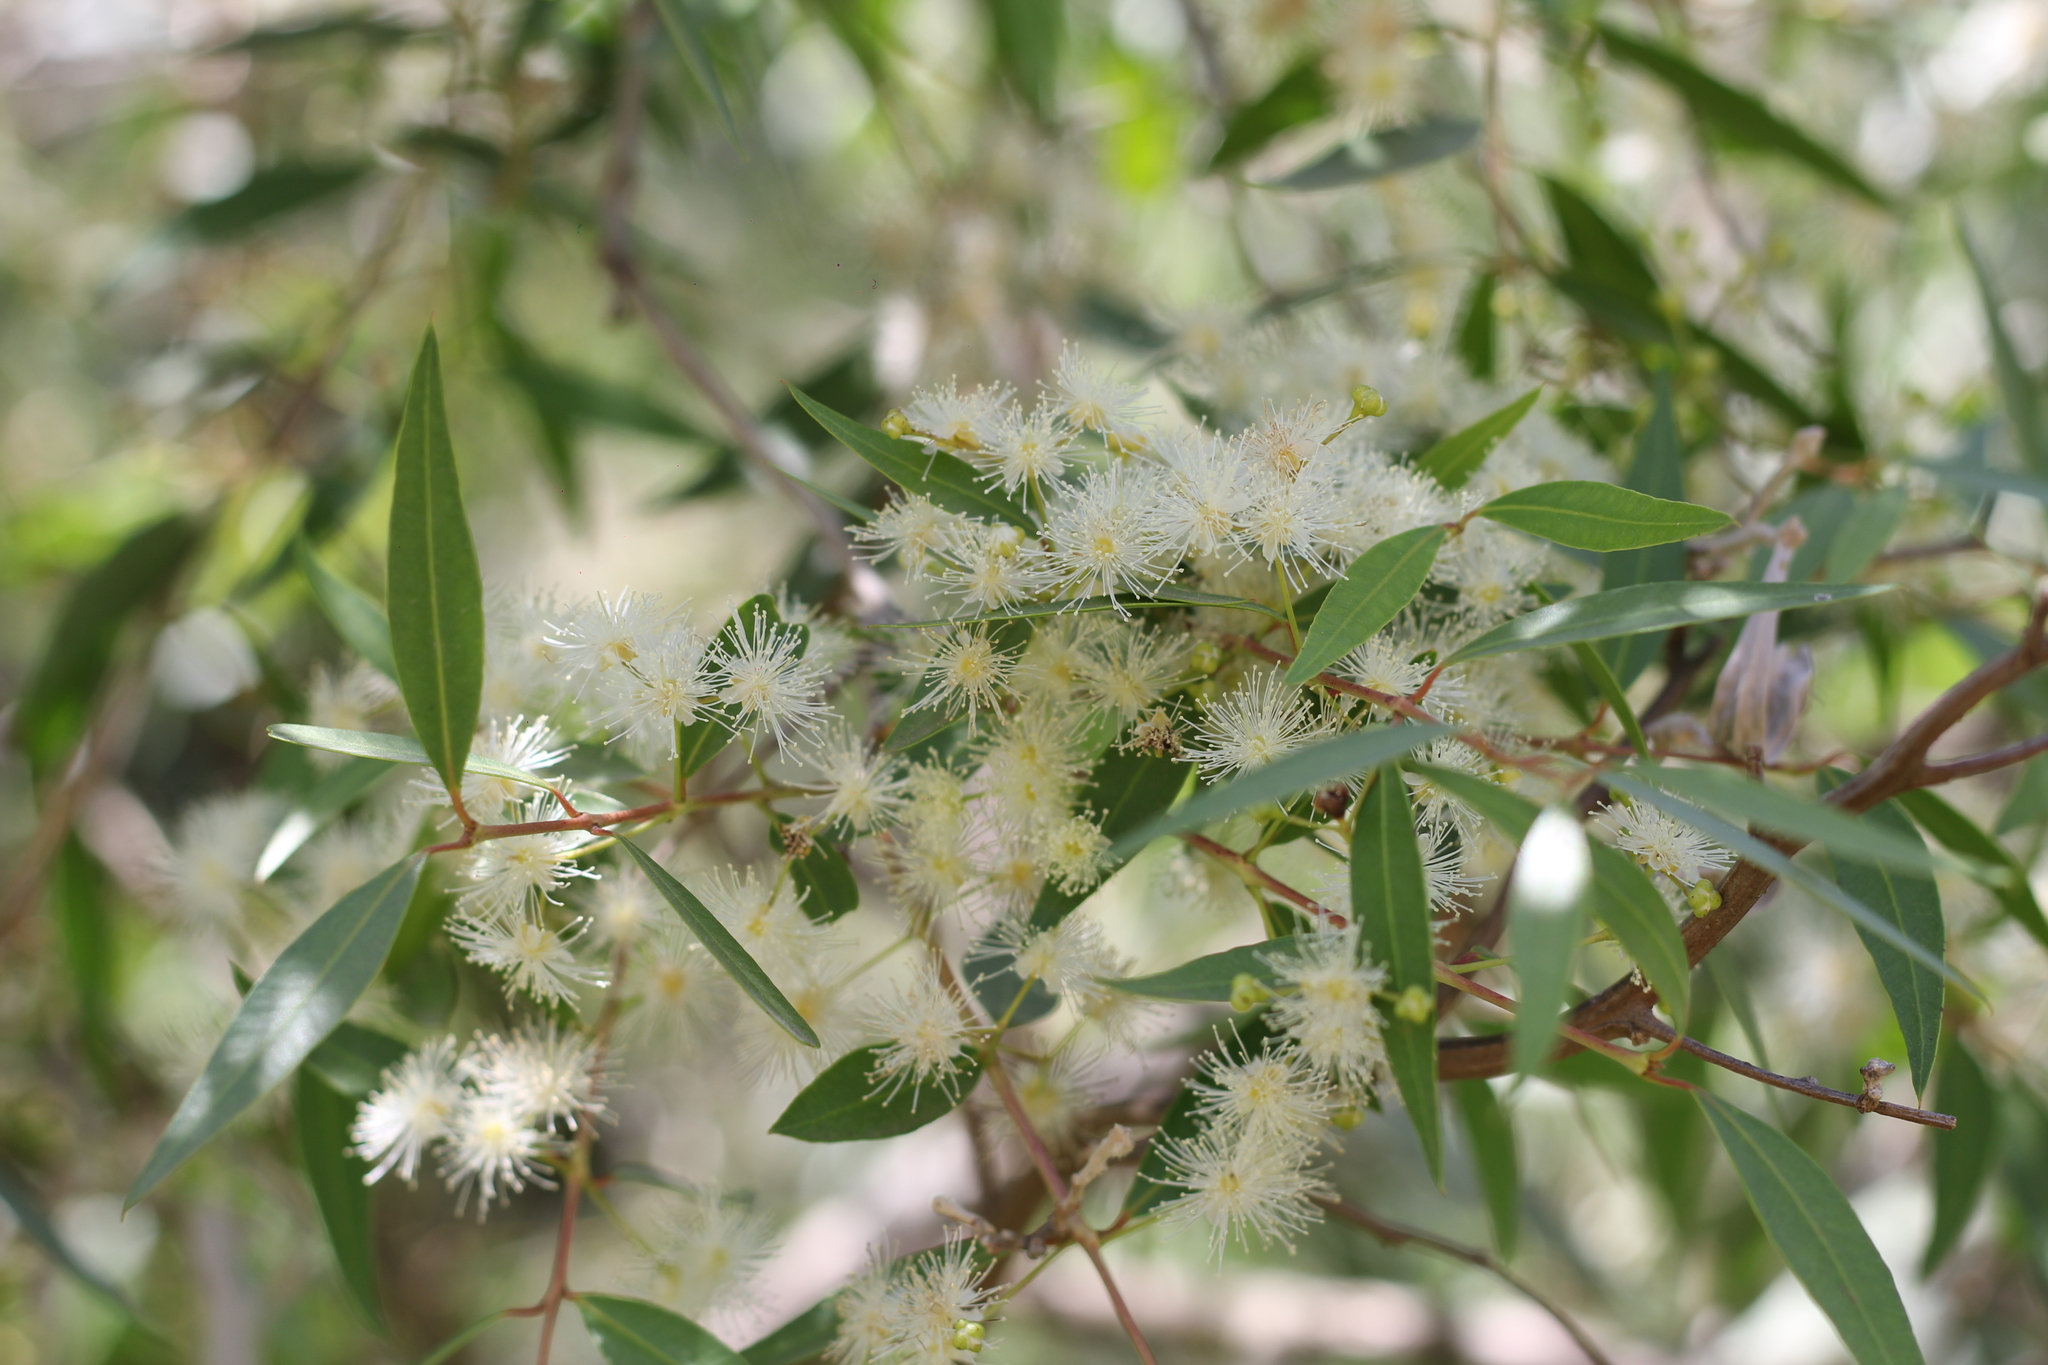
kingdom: Plantae
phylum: Tracheophyta
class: Magnoliopsida
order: Myrtales
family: Myrtaceae
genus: Blepharocalyx
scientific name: Blepharocalyx salicifolius
